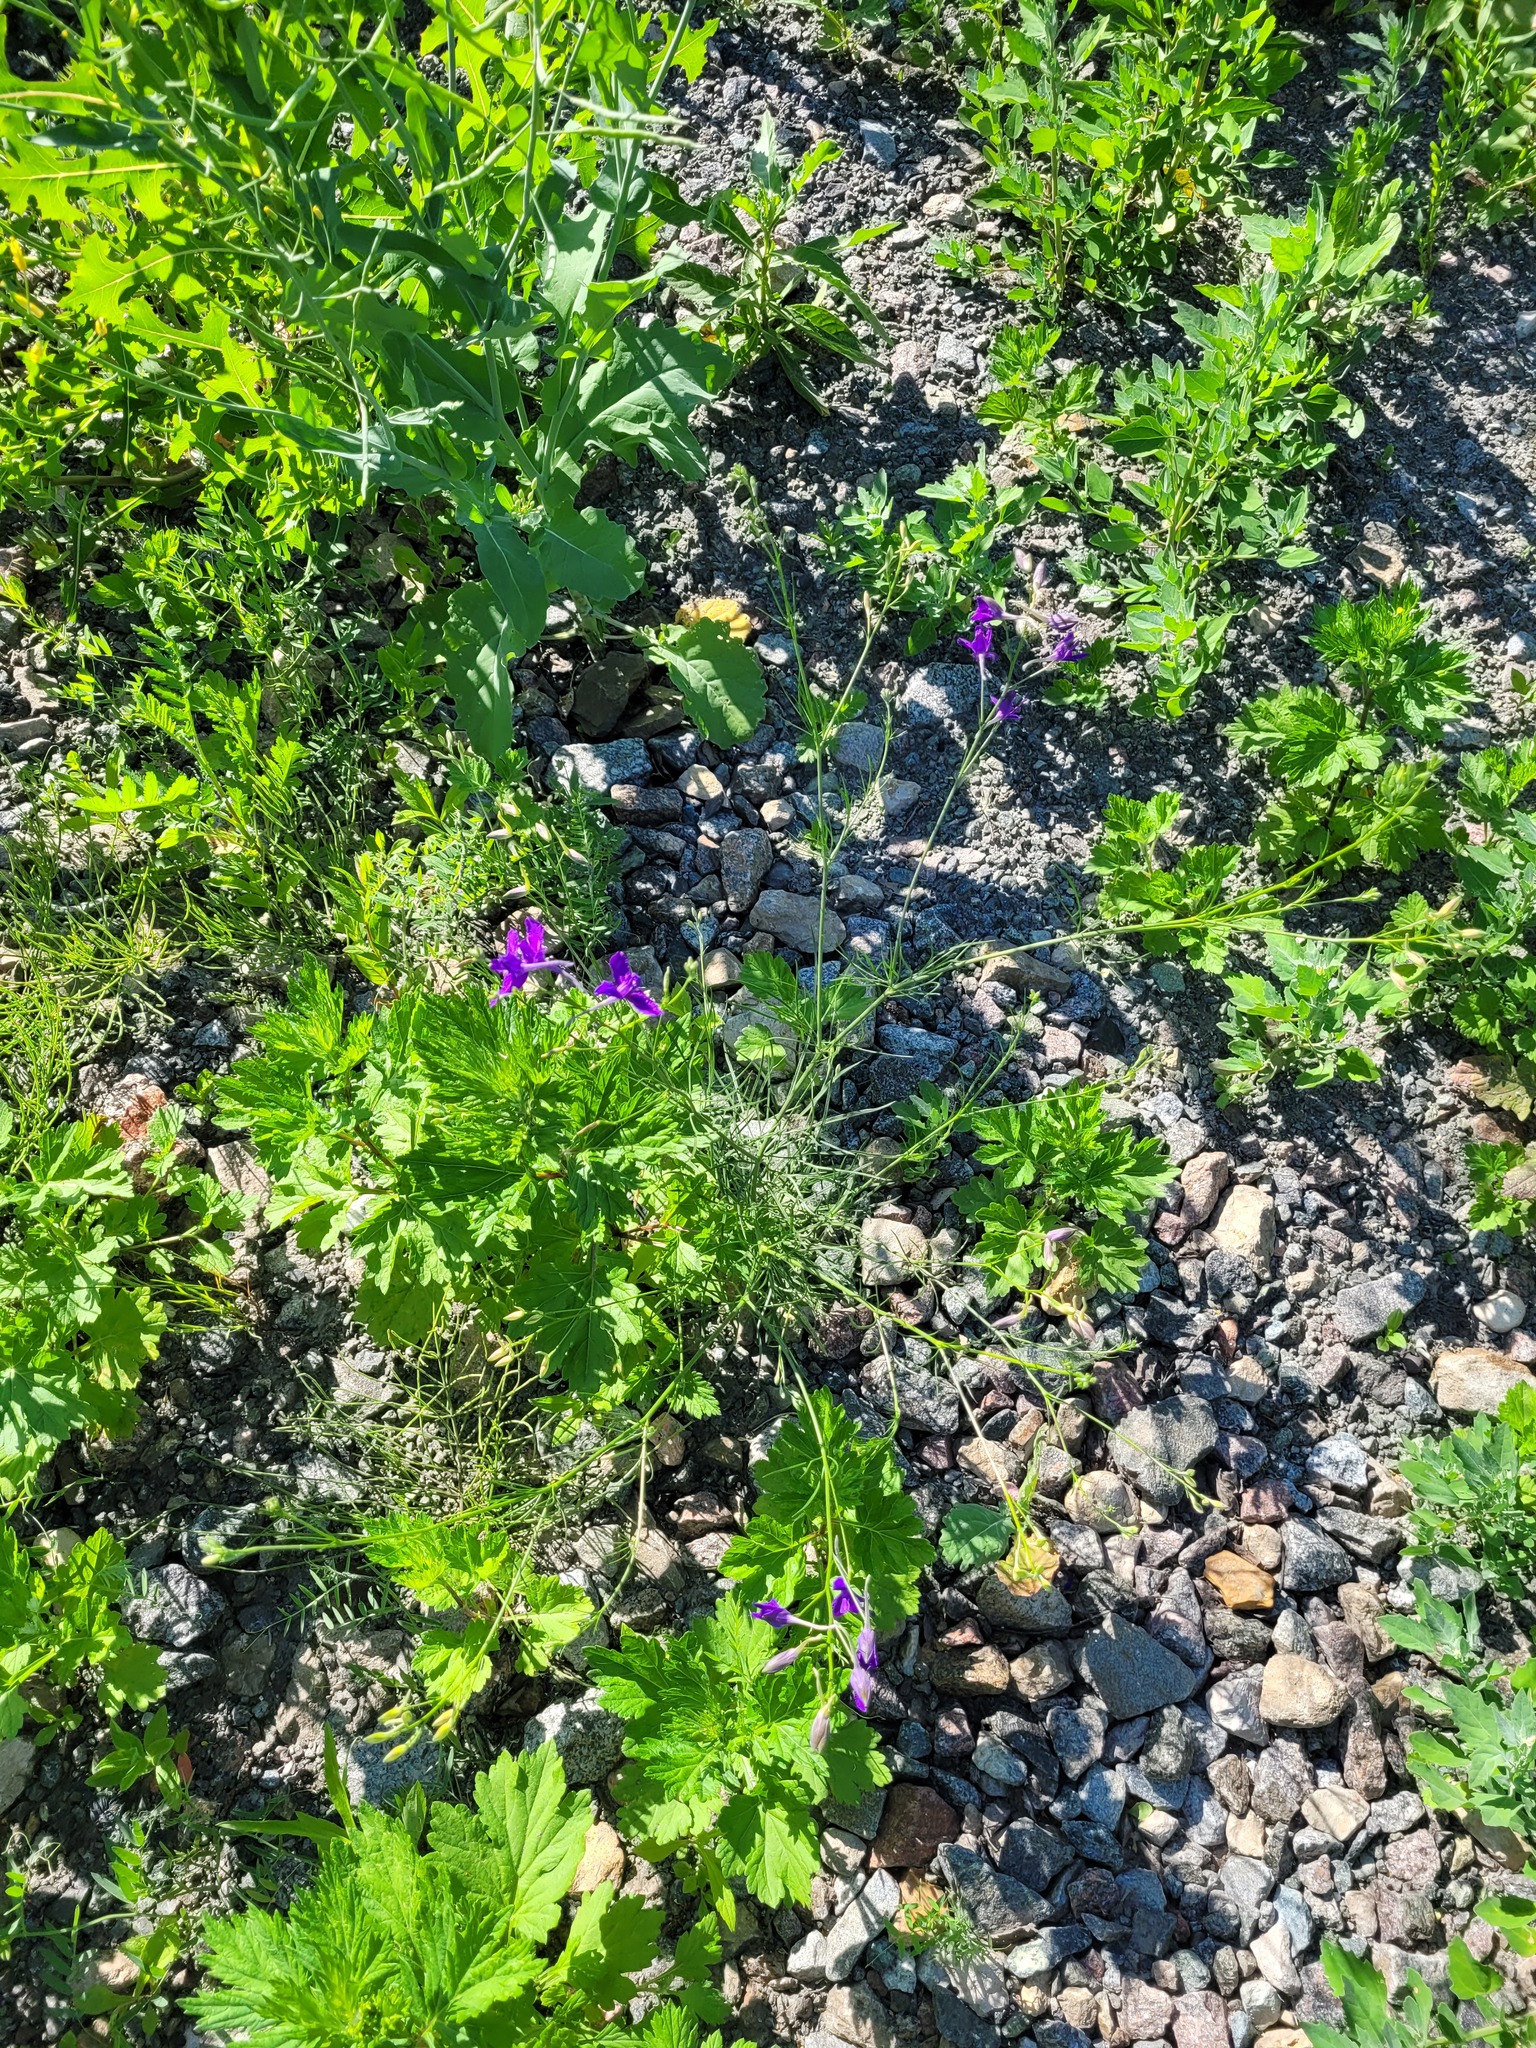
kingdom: Plantae
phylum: Tracheophyta
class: Magnoliopsida
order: Ranunculales
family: Ranunculaceae
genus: Delphinium
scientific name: Delphinium consolida
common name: Branching larkspur
